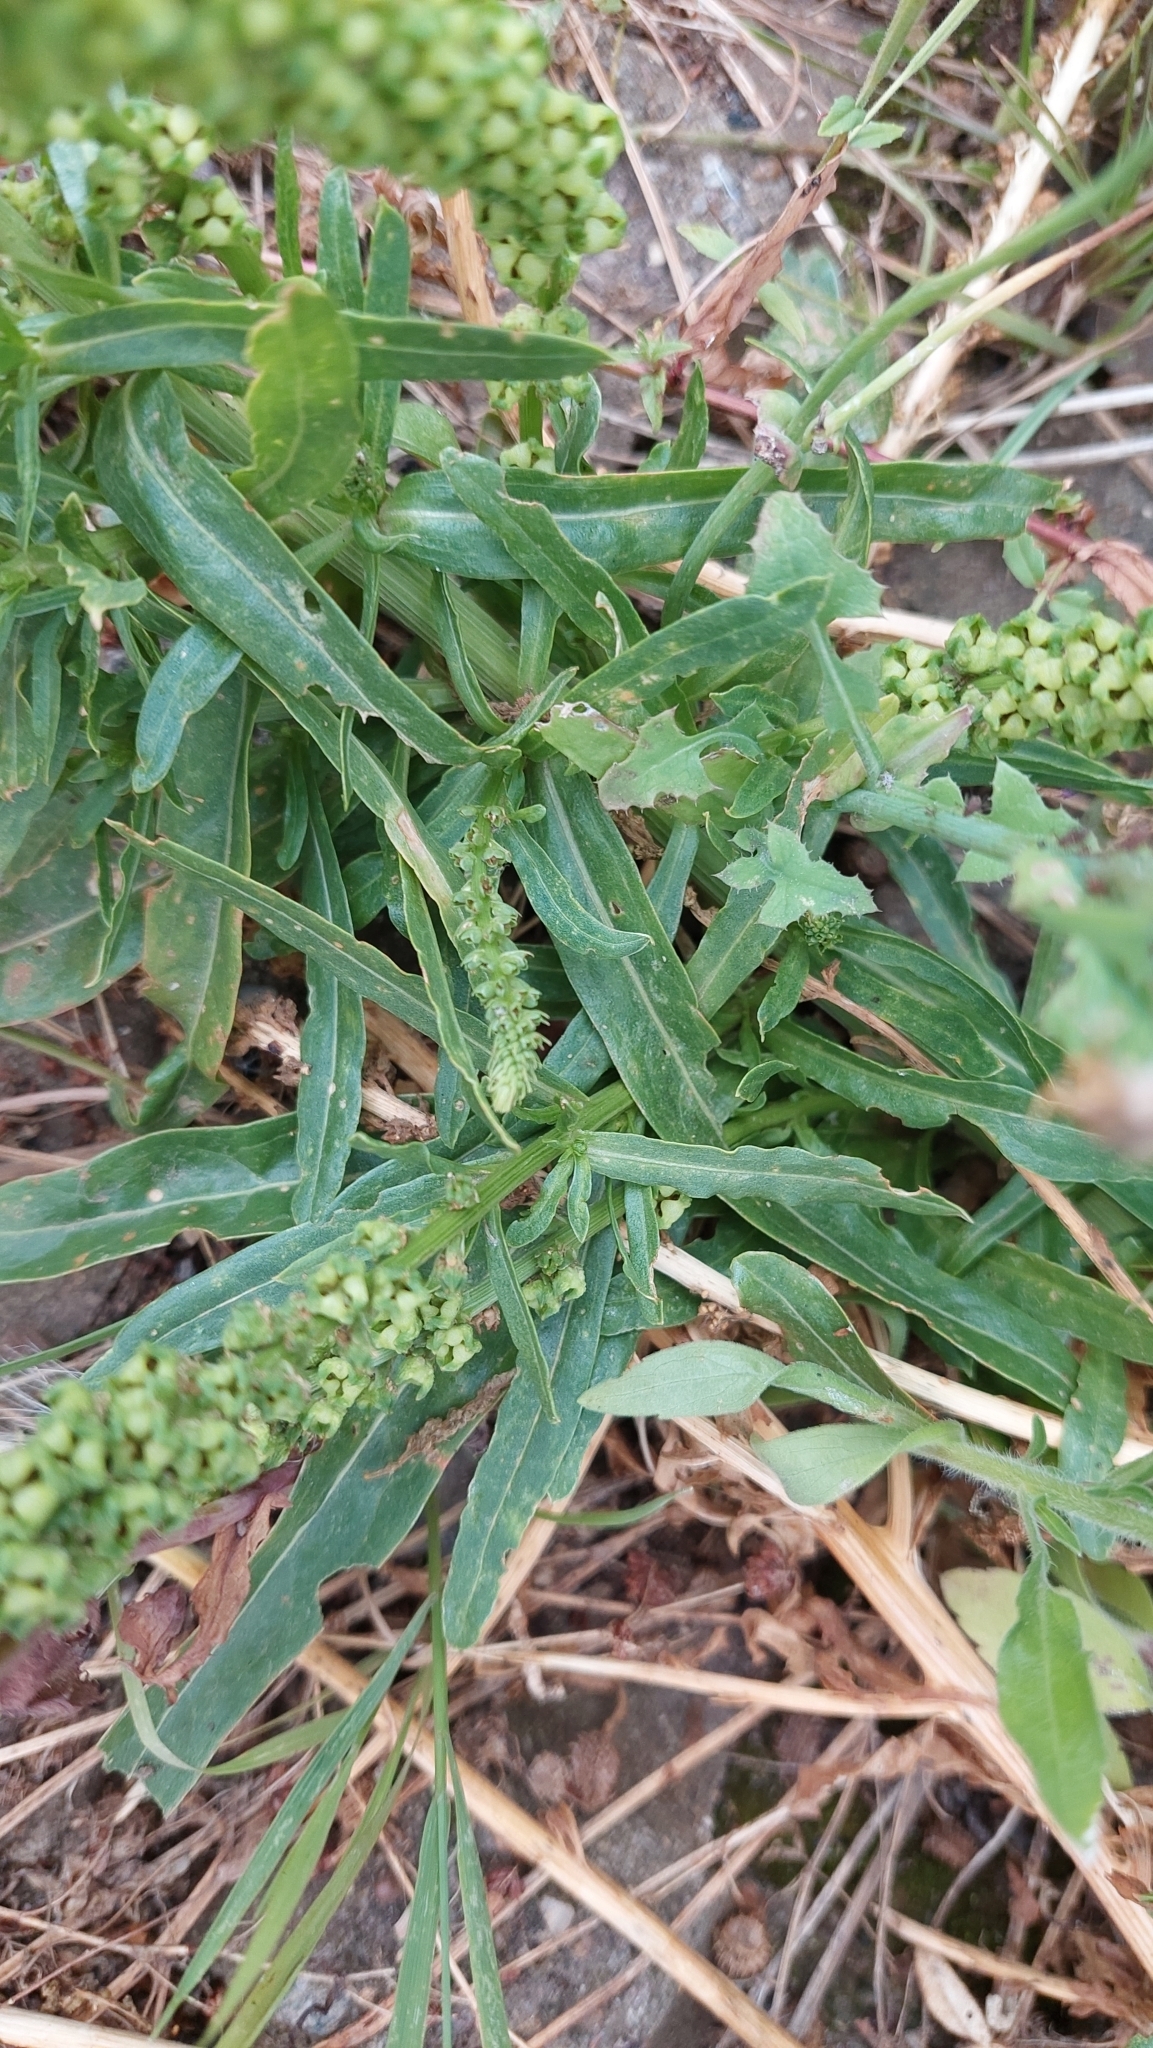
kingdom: Plantae
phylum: Tracheophyta
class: Magnoliopsida
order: Brassicales
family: Resedaceae
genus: Reseda
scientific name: Reseda luteola
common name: Weld
